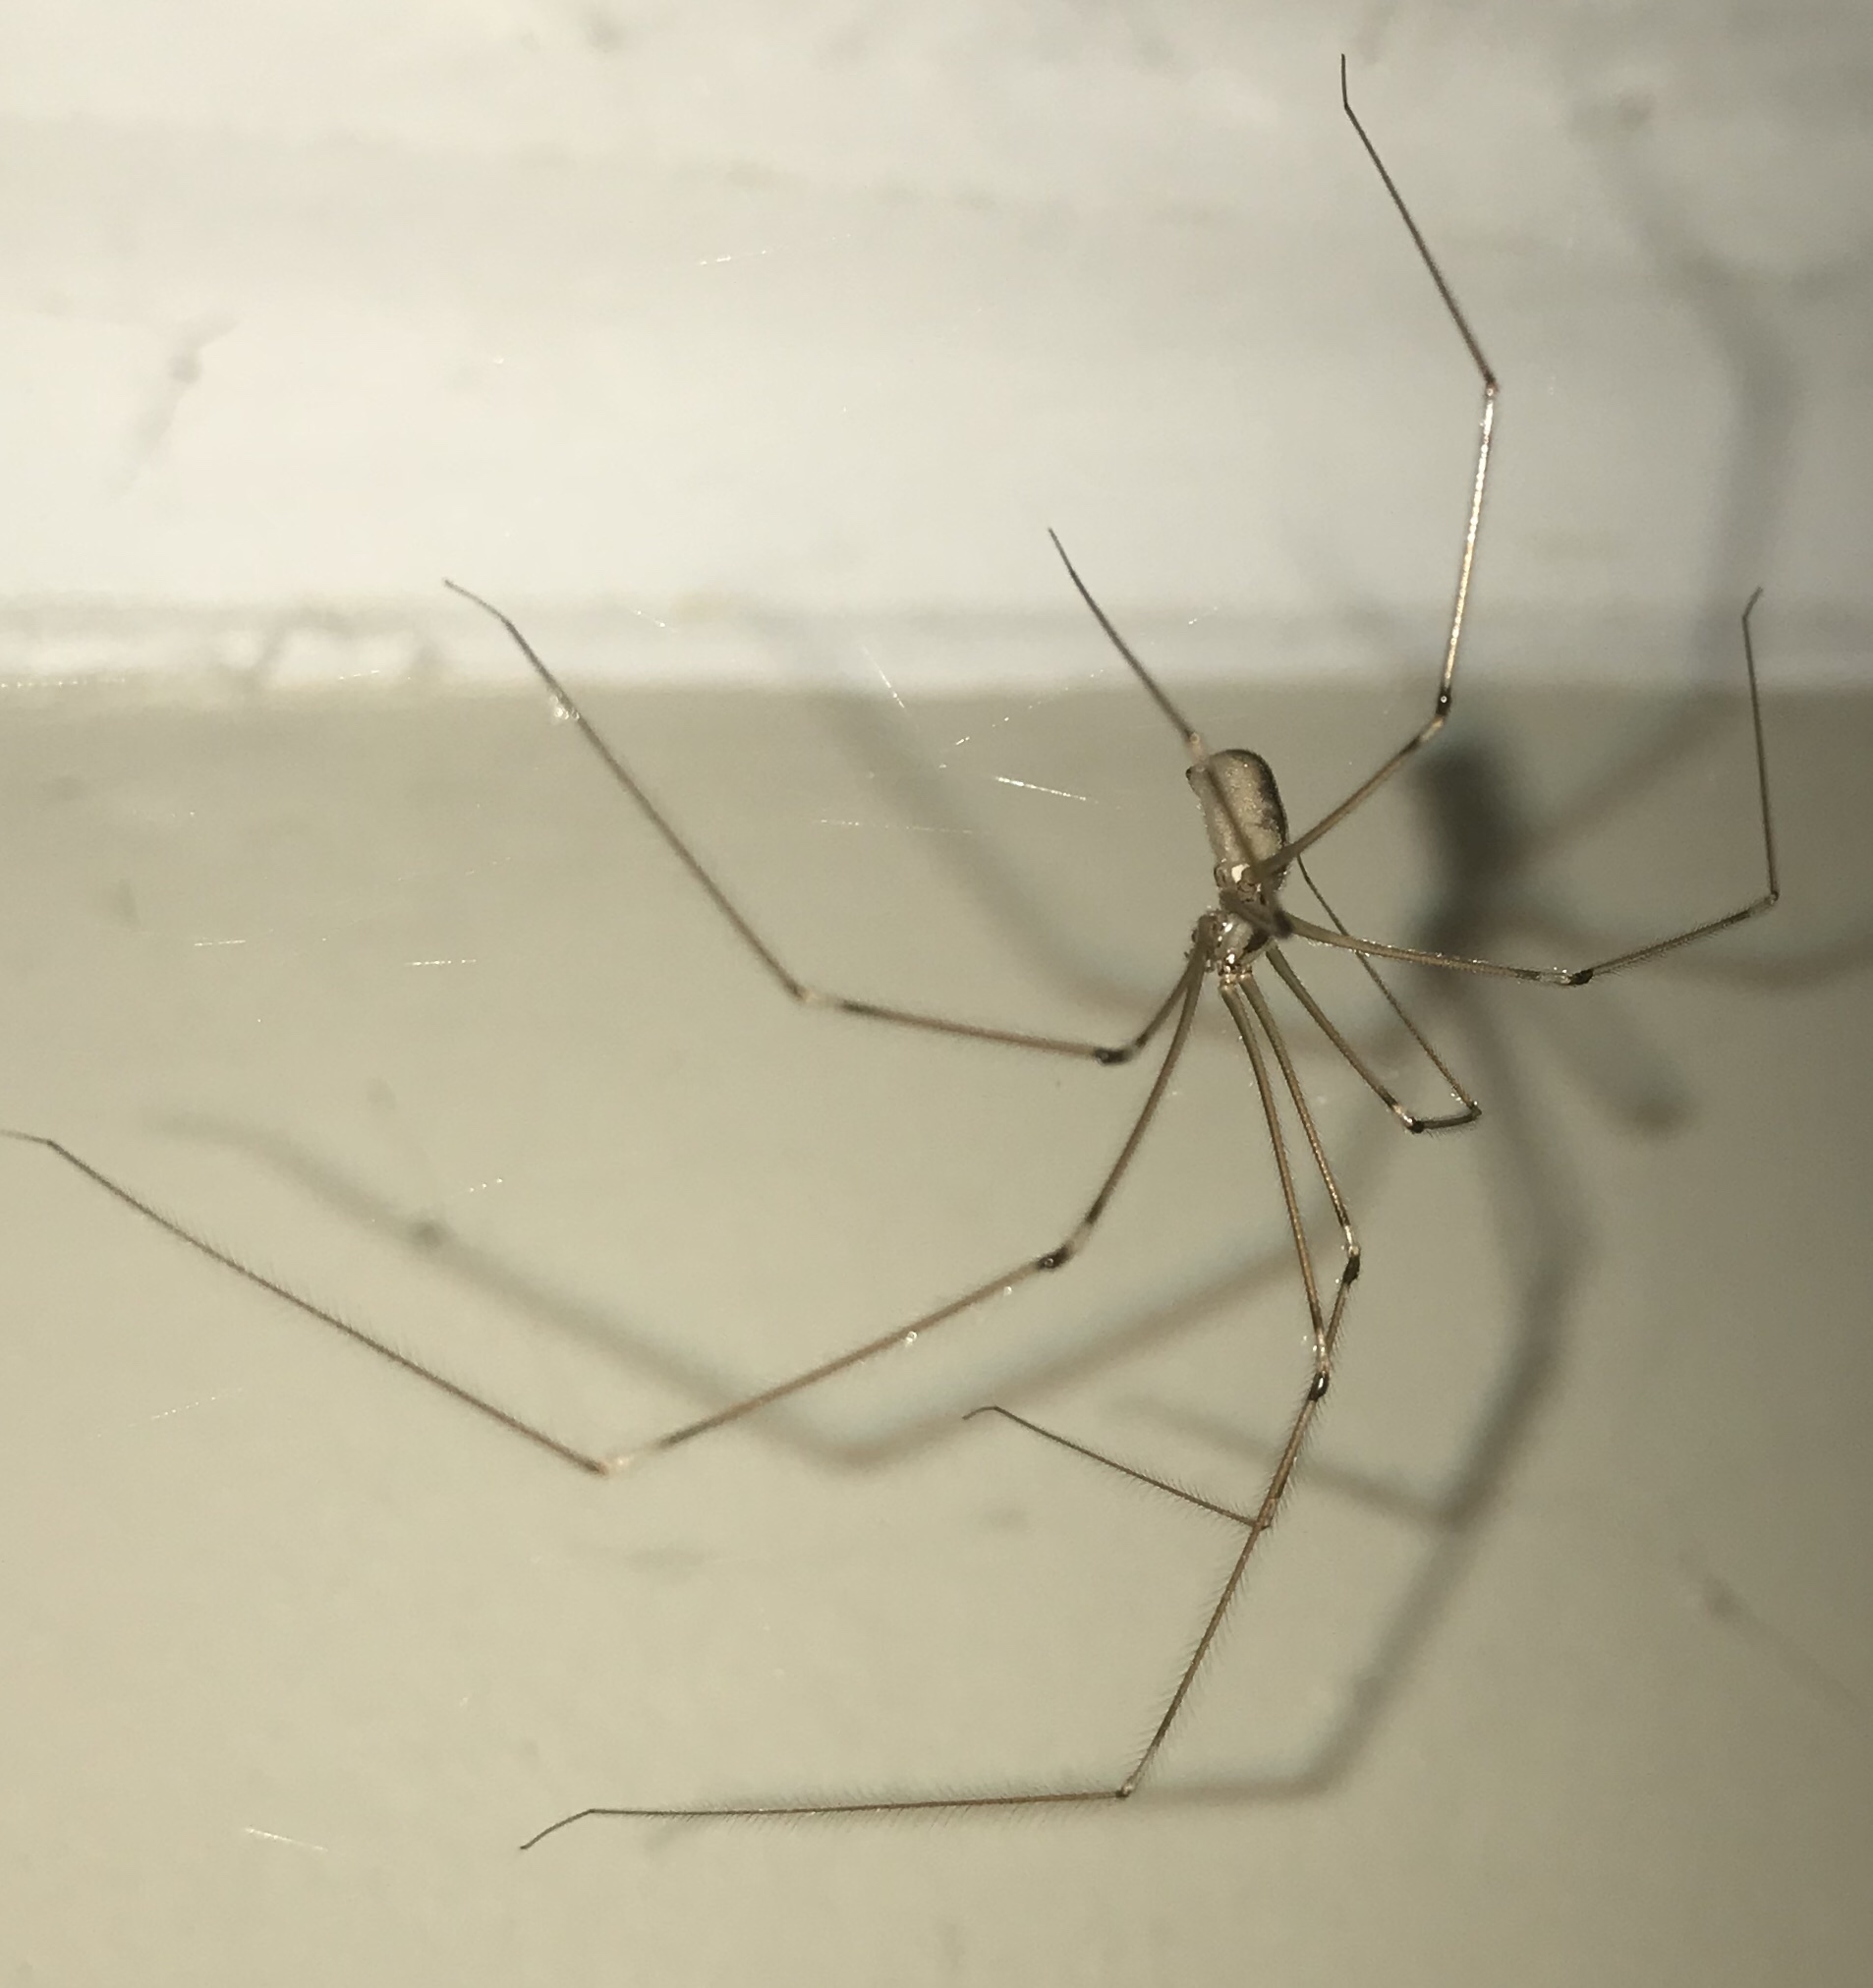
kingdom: Animalia
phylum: Arthropoda
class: Arachnida
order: Araneae
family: Pholcidae
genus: Pholcus
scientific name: Pholcus phalangioides
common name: Longbodied cellar spider
